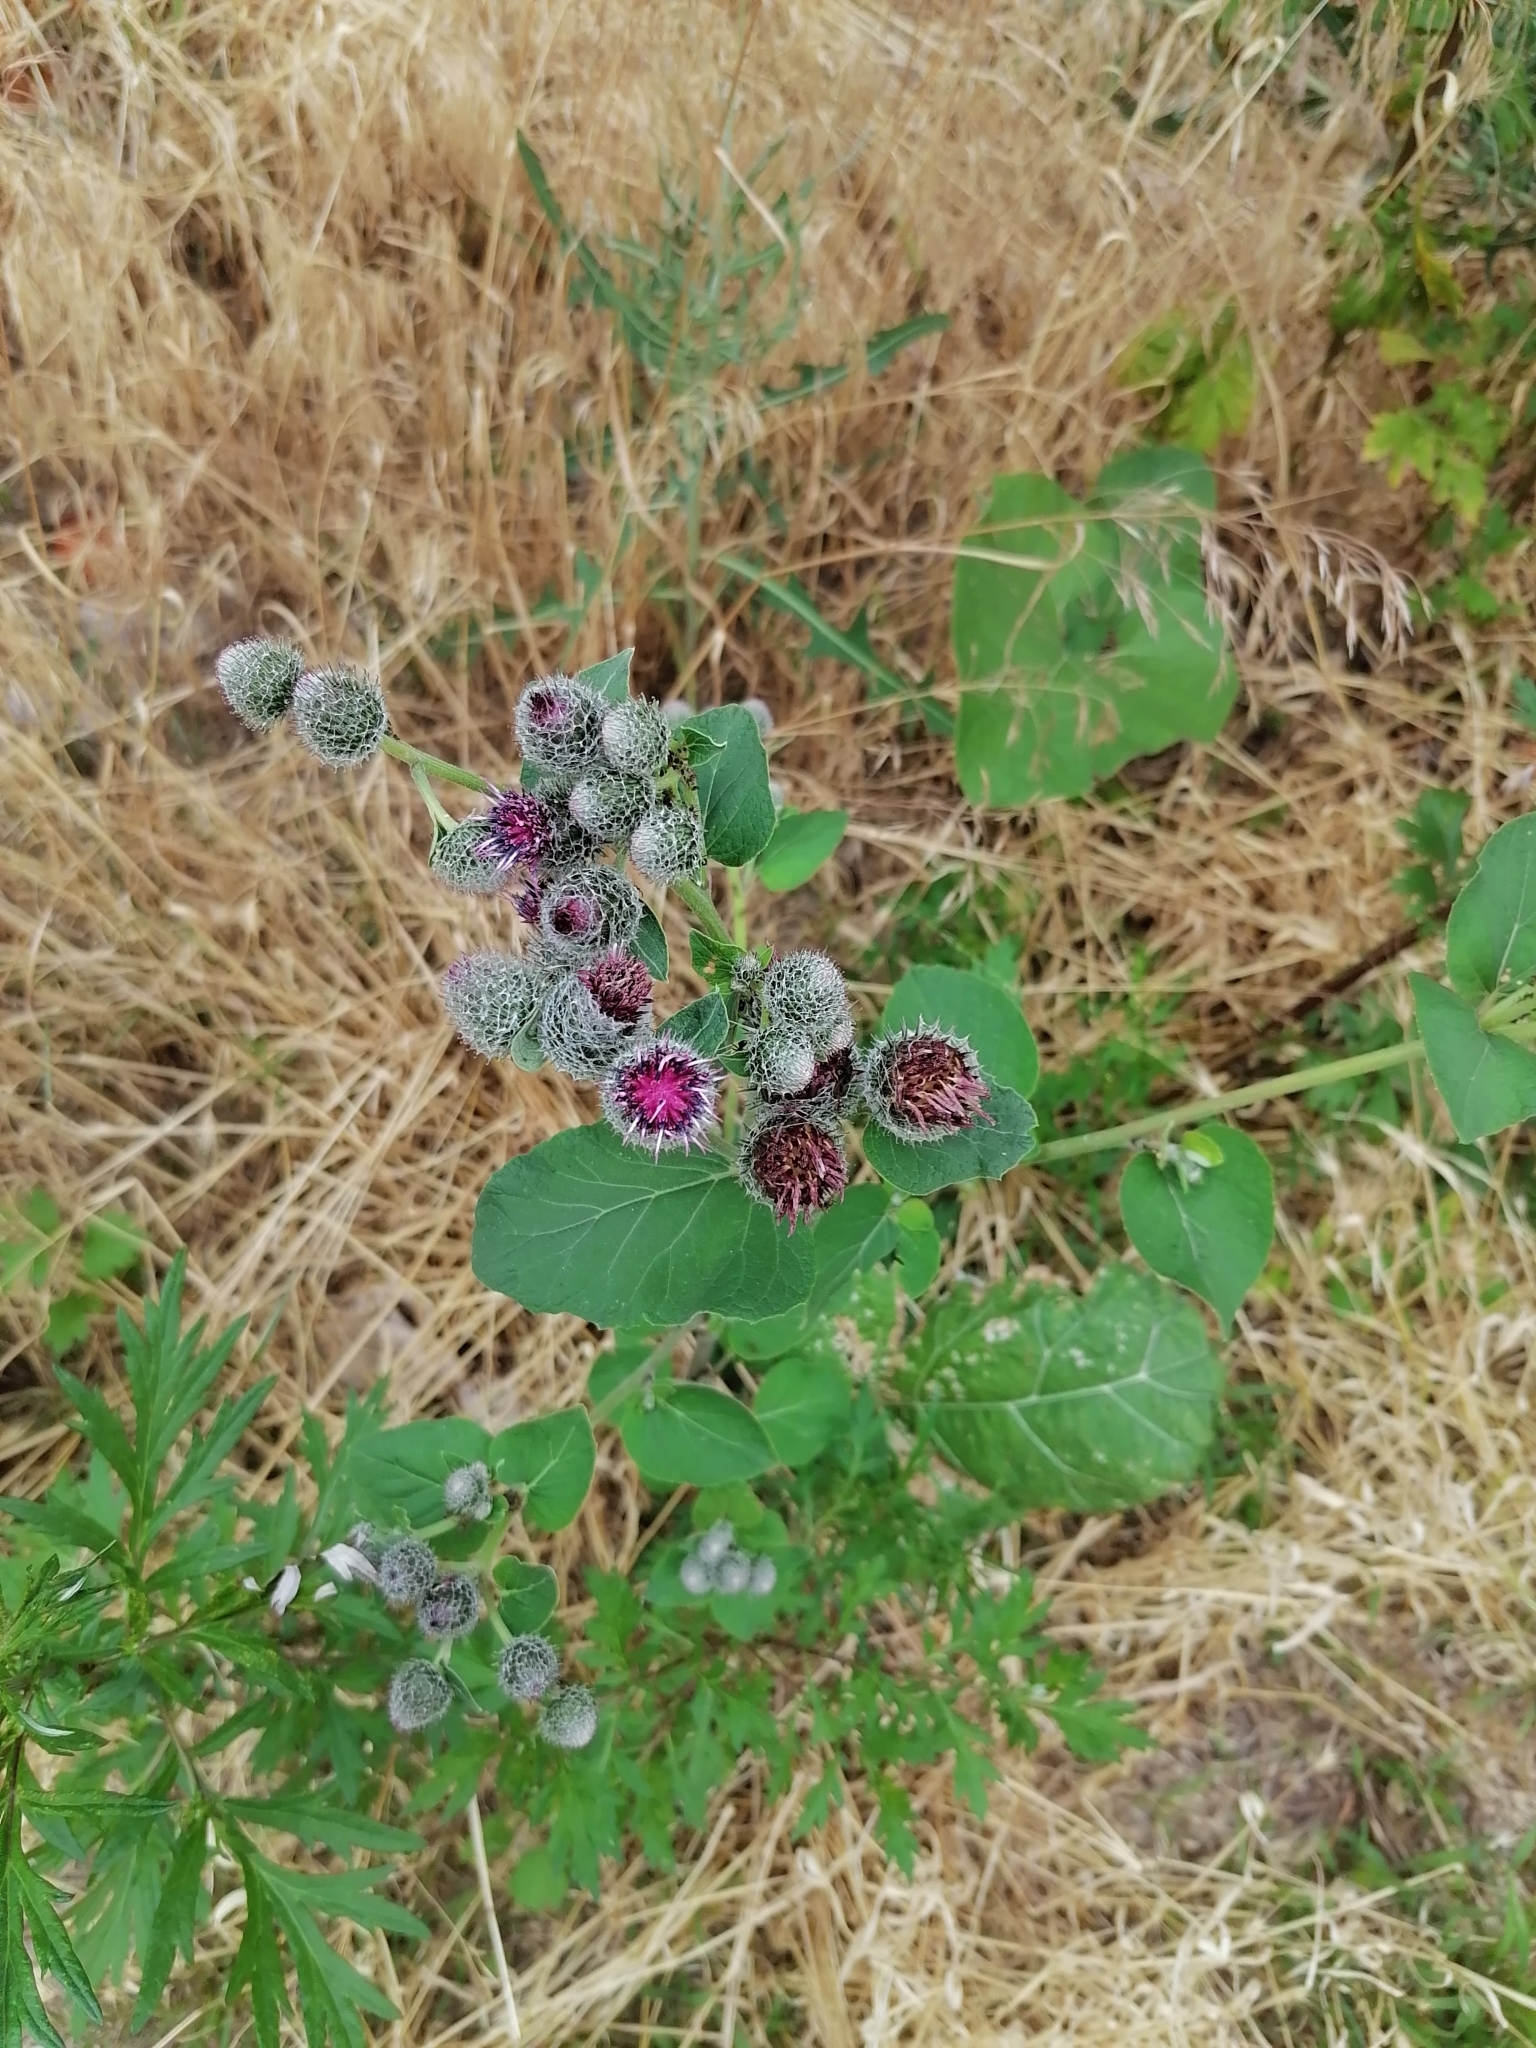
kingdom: Plantae
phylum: Tracheophyta
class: Magnoliopsida
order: Asterales
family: Asteraceae
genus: Arctium
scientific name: Arctium tomentosum
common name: Woolly burdock
